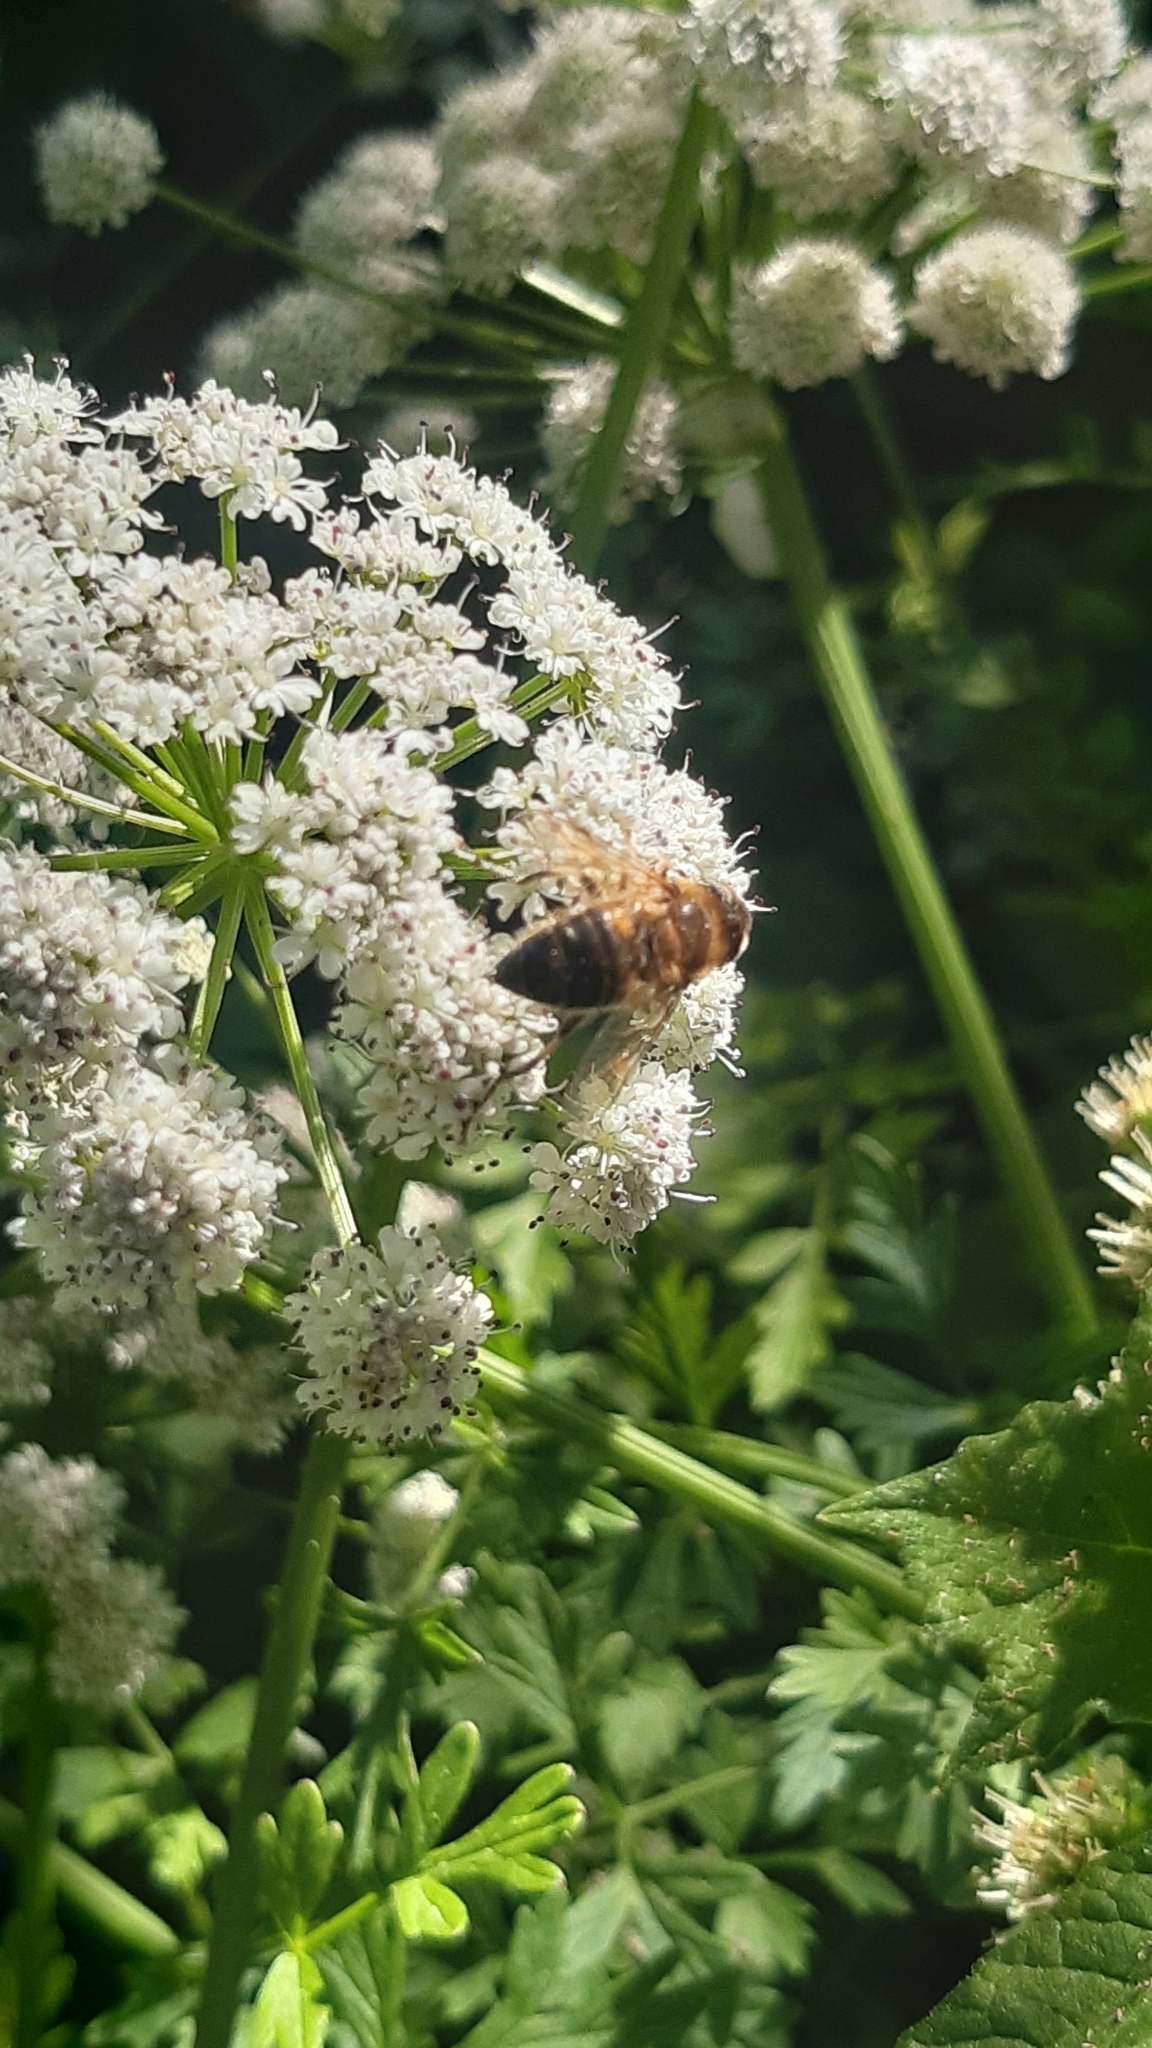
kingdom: Animalia
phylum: Arthropoda
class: Insecta
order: Diptera
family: Syrphidae
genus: Eristalis
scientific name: Eristalis pertinax
